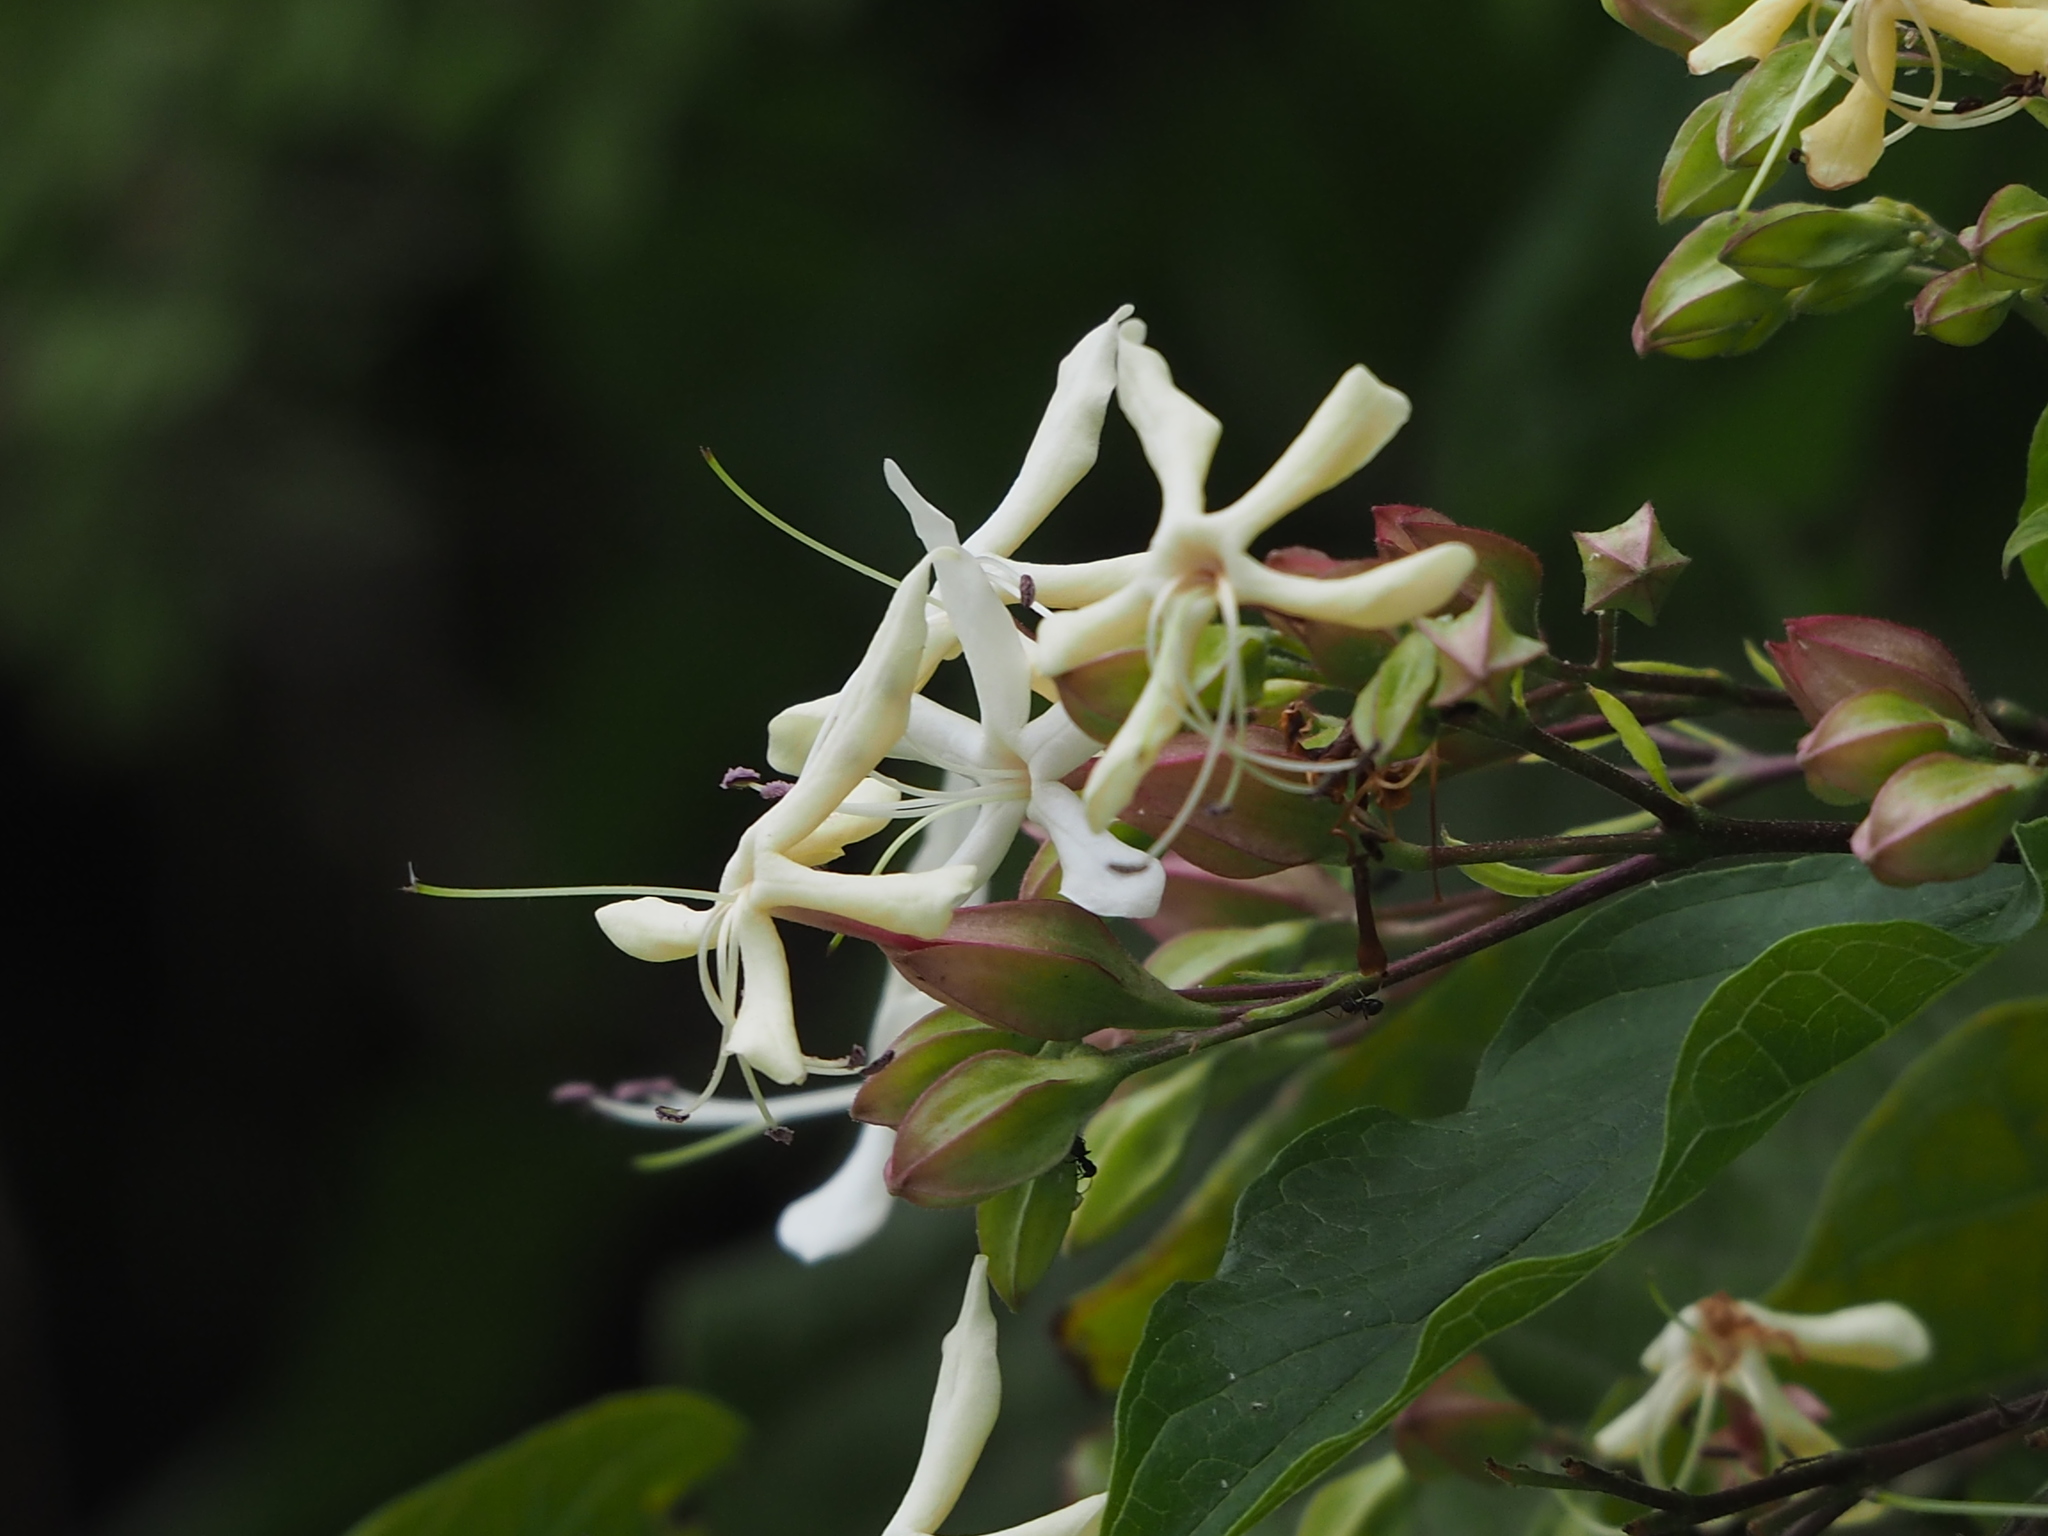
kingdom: Plantae
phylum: Tracheophyta
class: Magnoliopsida
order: Lamiales
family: Lamiaceae
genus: Clerodendrum
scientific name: Clerodendrum trichotomum
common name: Harlequin glorybower
